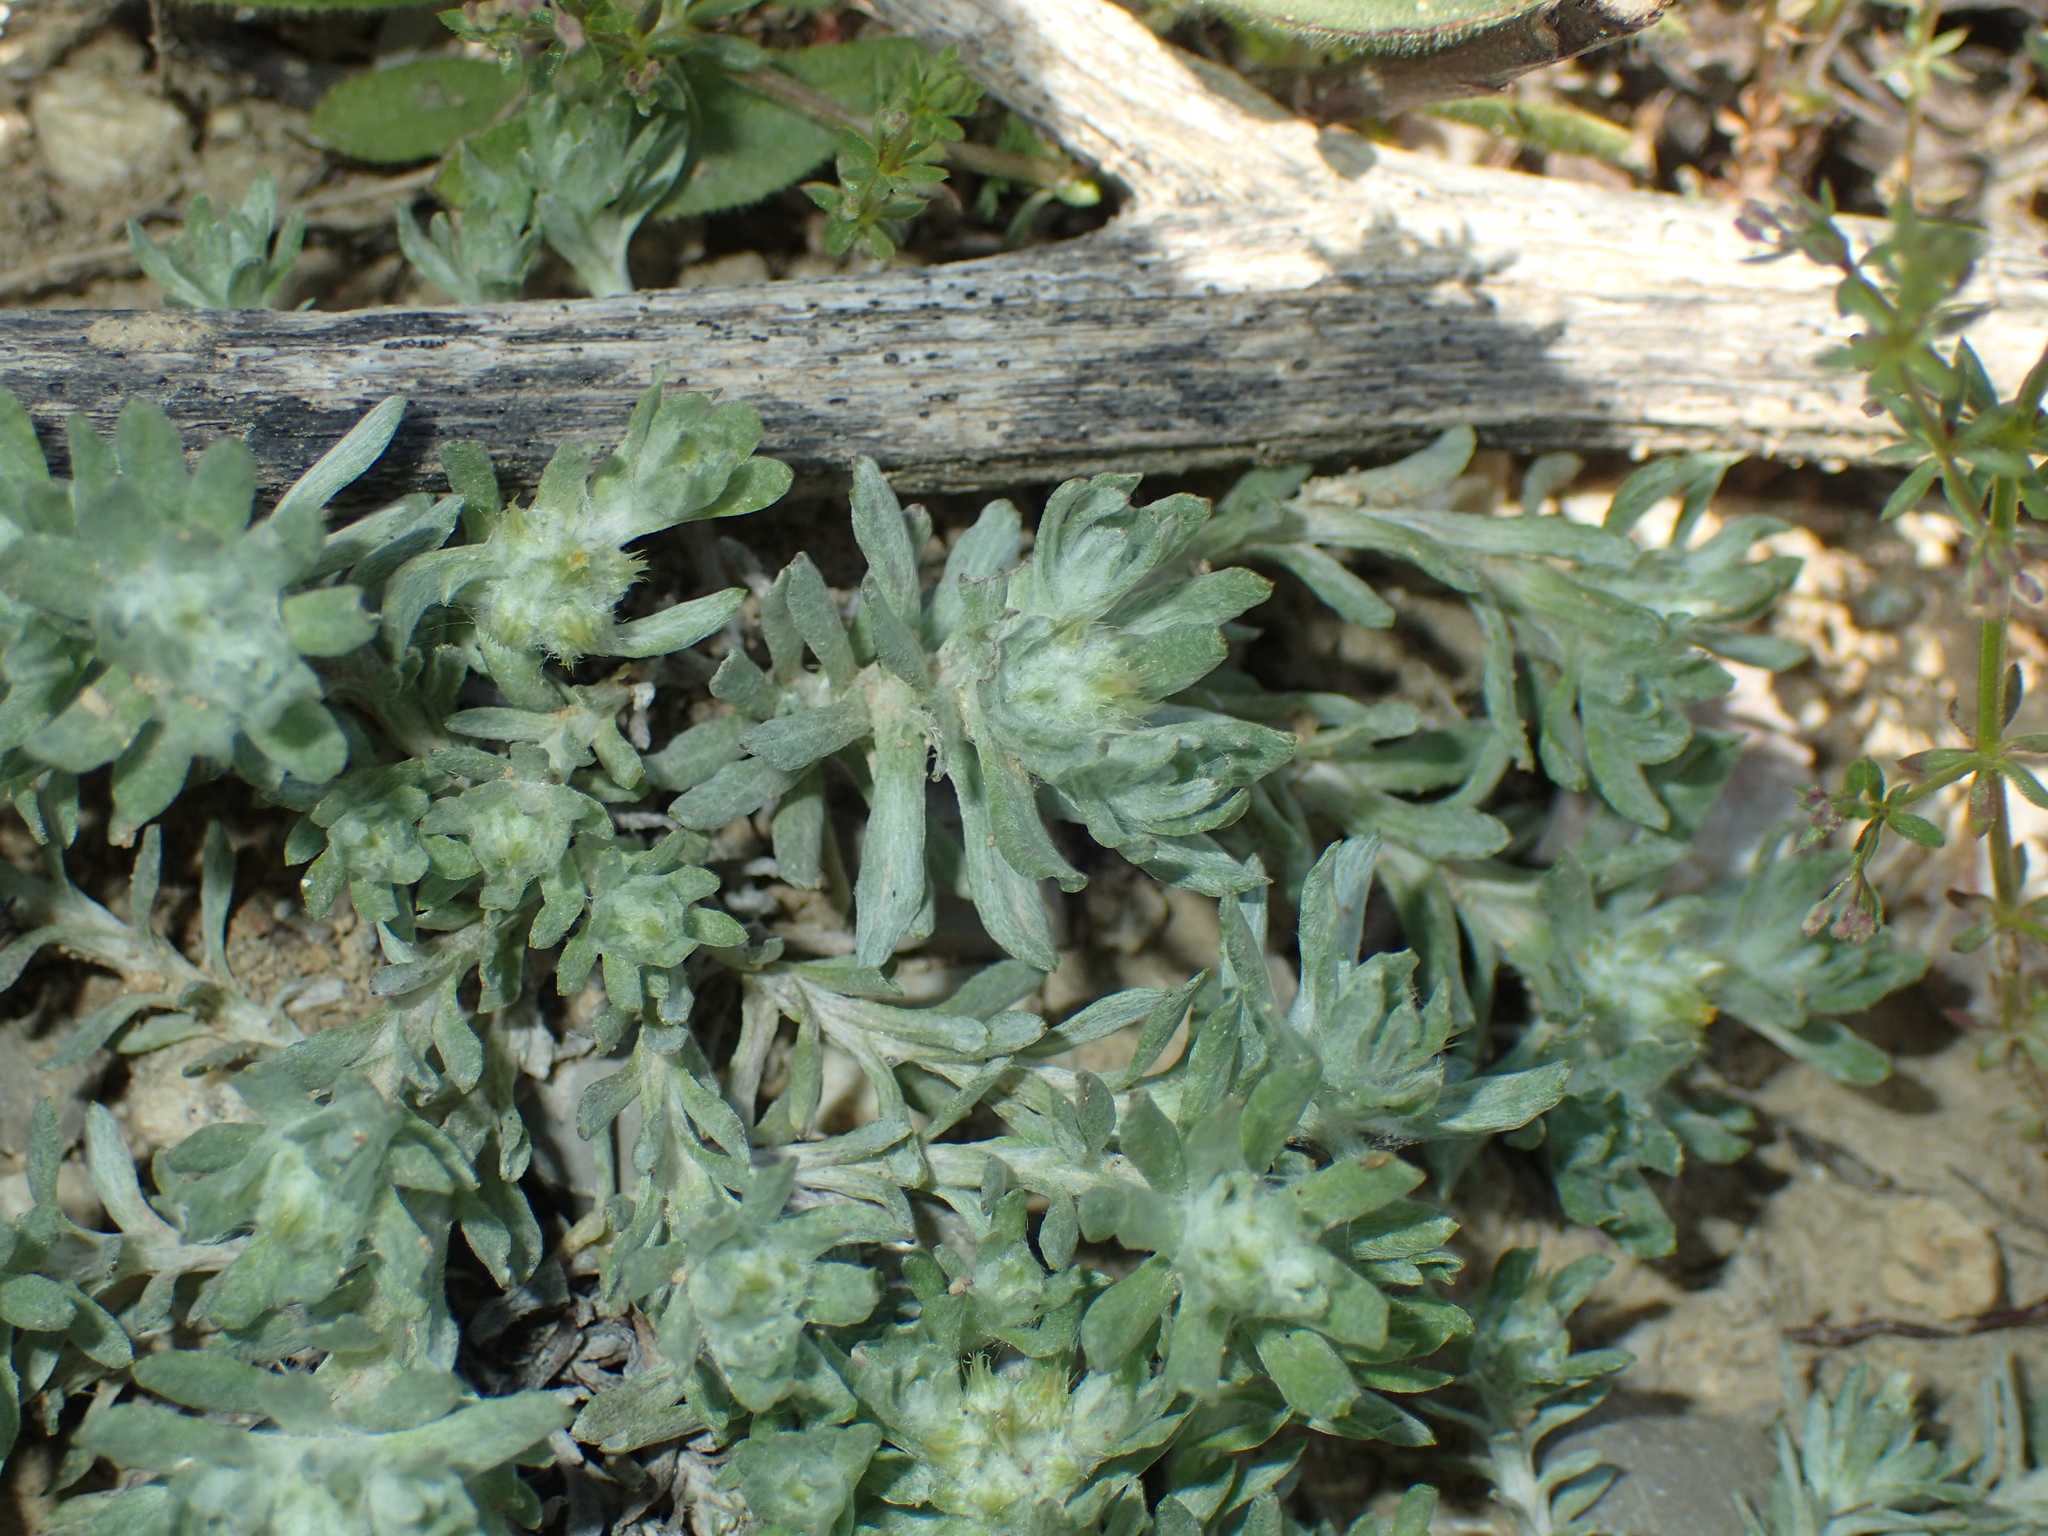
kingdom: Plantae
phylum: Tracheophyta
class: Magnoliopsida
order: Asterales
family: Asteraceae
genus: Filago
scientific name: Filago pyramidata
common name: Broad-leaved cudweed
